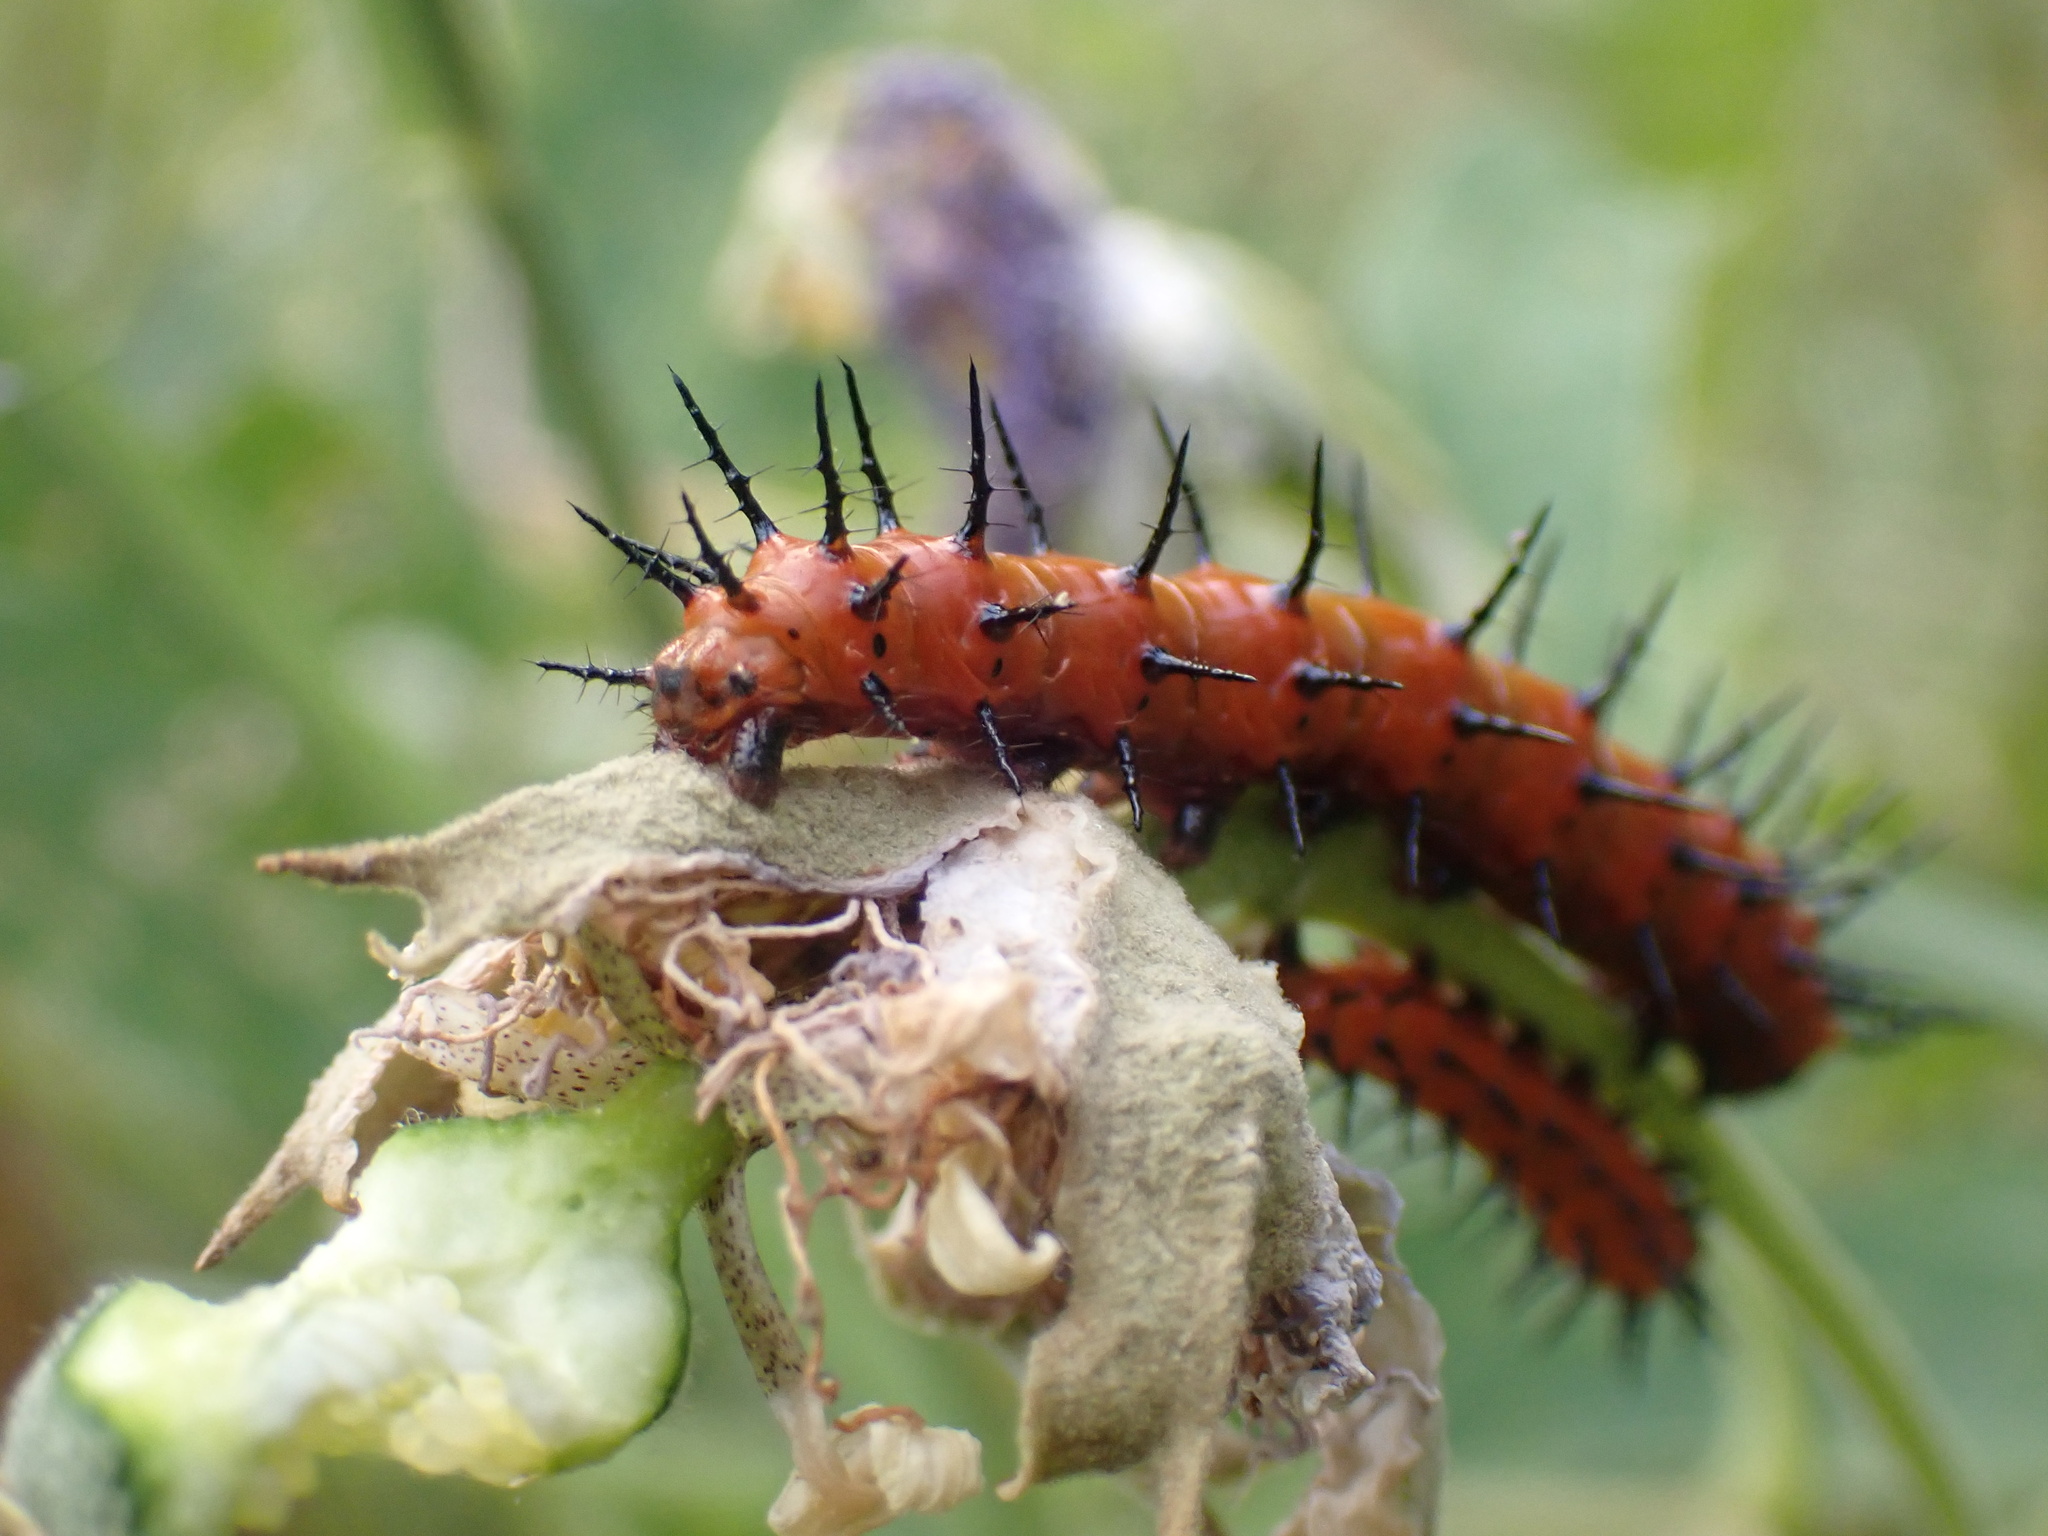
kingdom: Animalia
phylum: Arthropoda
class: Insecta
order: Lepidoptera
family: Nymphalidae
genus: Dione
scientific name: Dione vanillae
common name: Gulf fritillary
